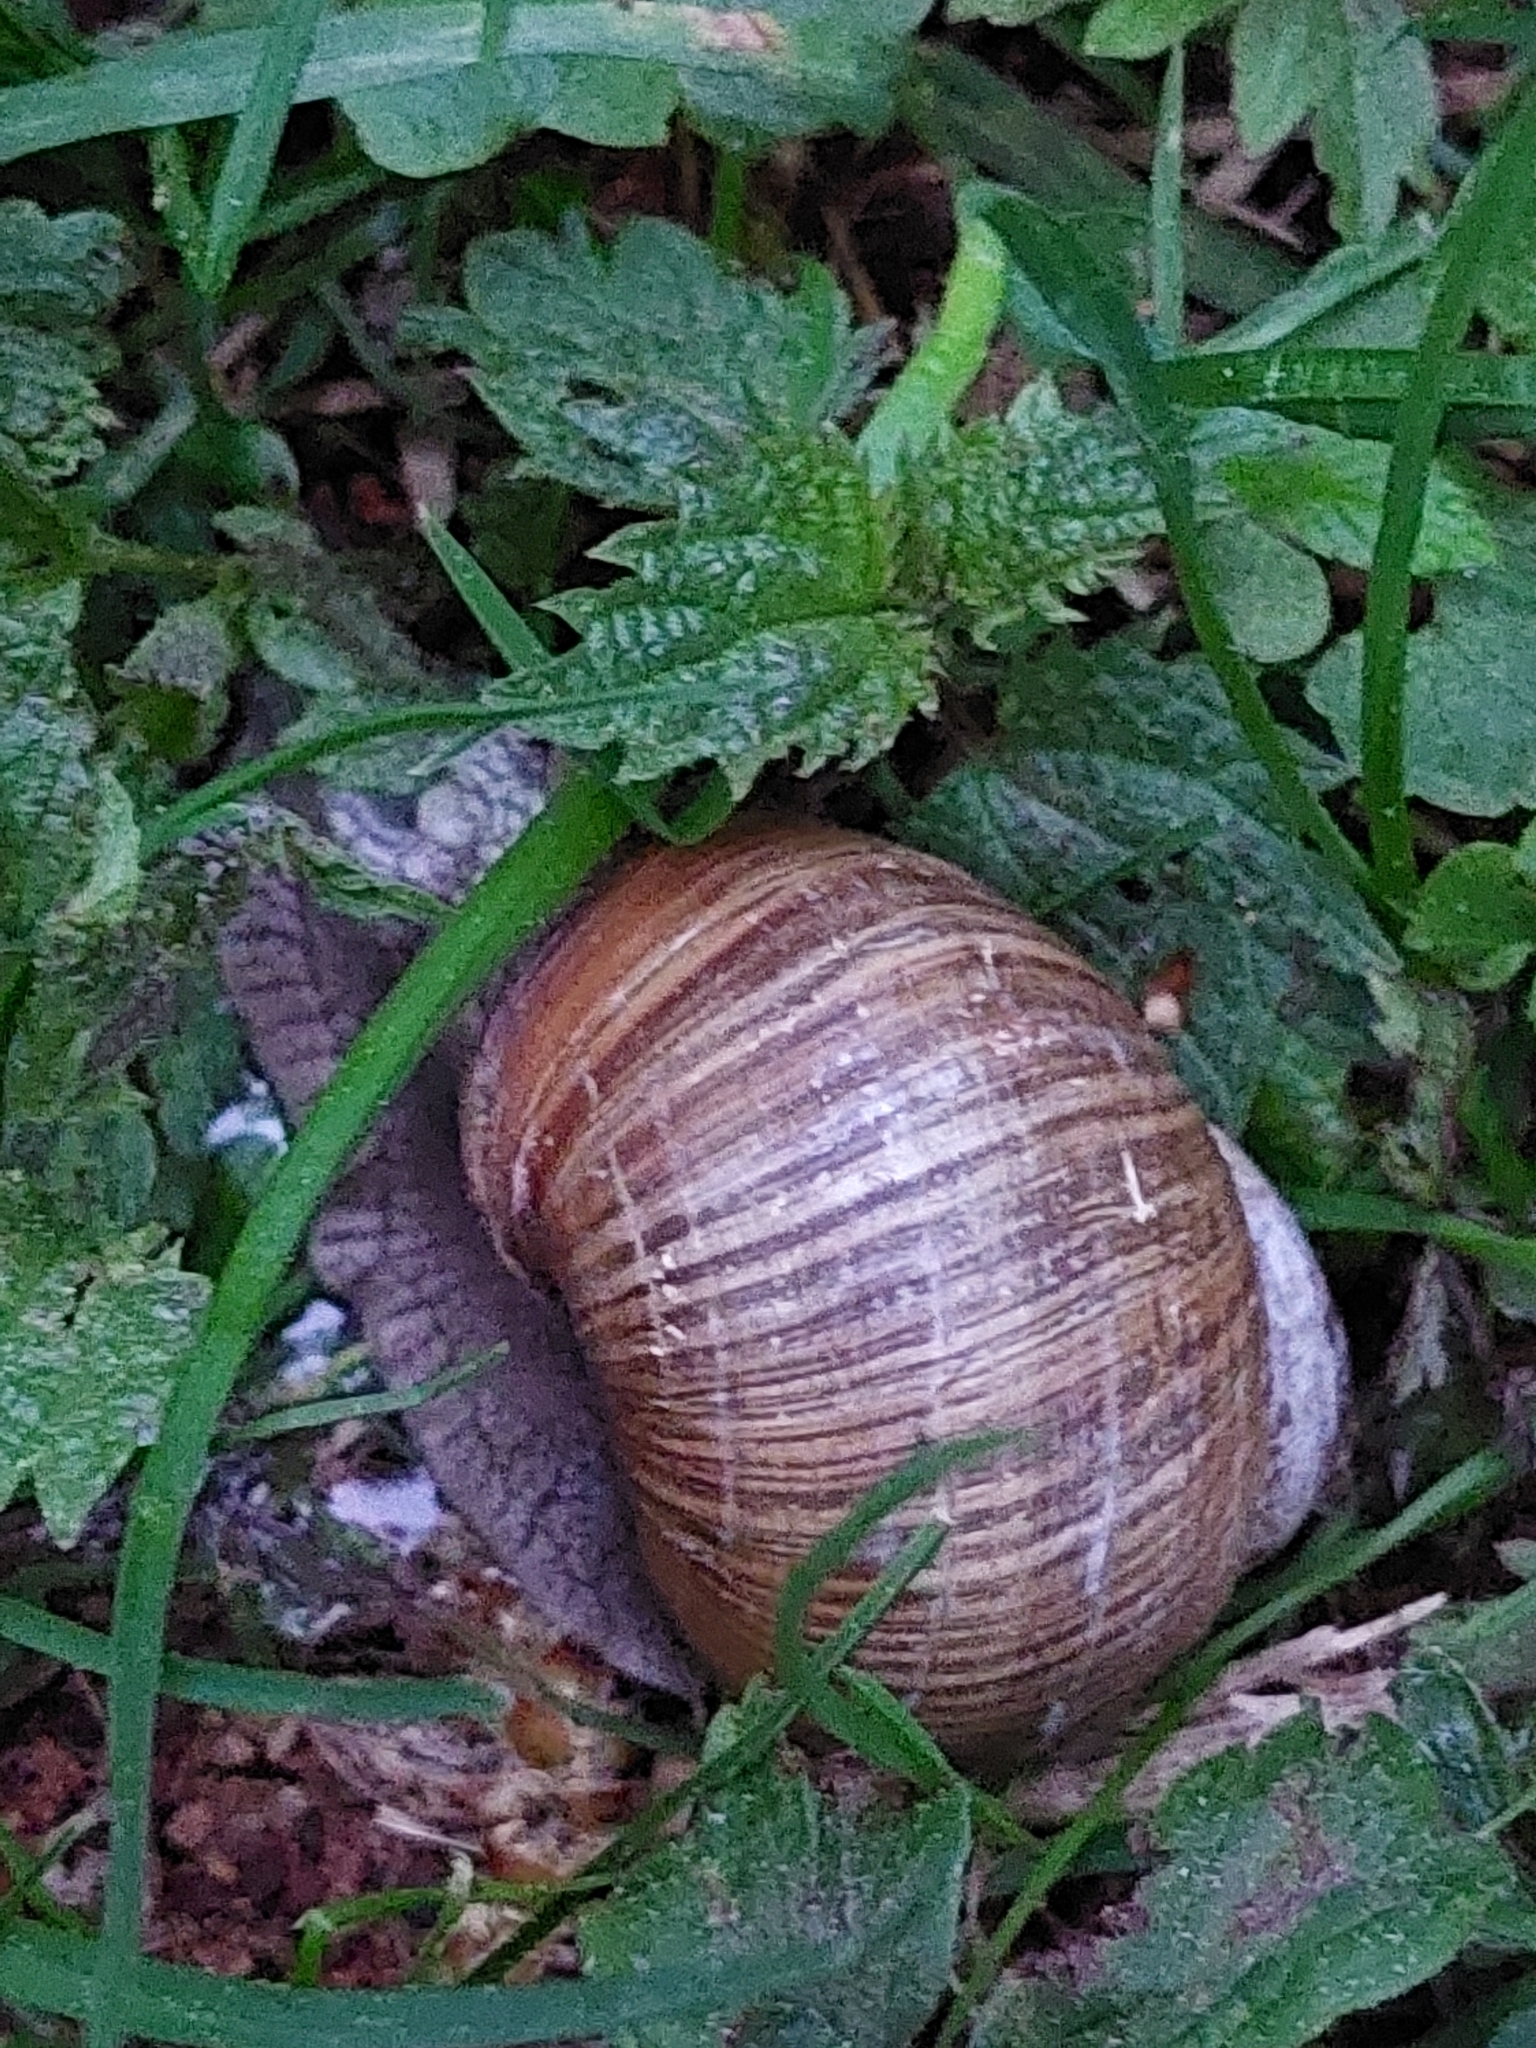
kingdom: Animalia
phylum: Mollusca
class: Gastropoda
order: Stylommatophora
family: Helicidae
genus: Helix
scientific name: Helix pomatia
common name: Roman snail
